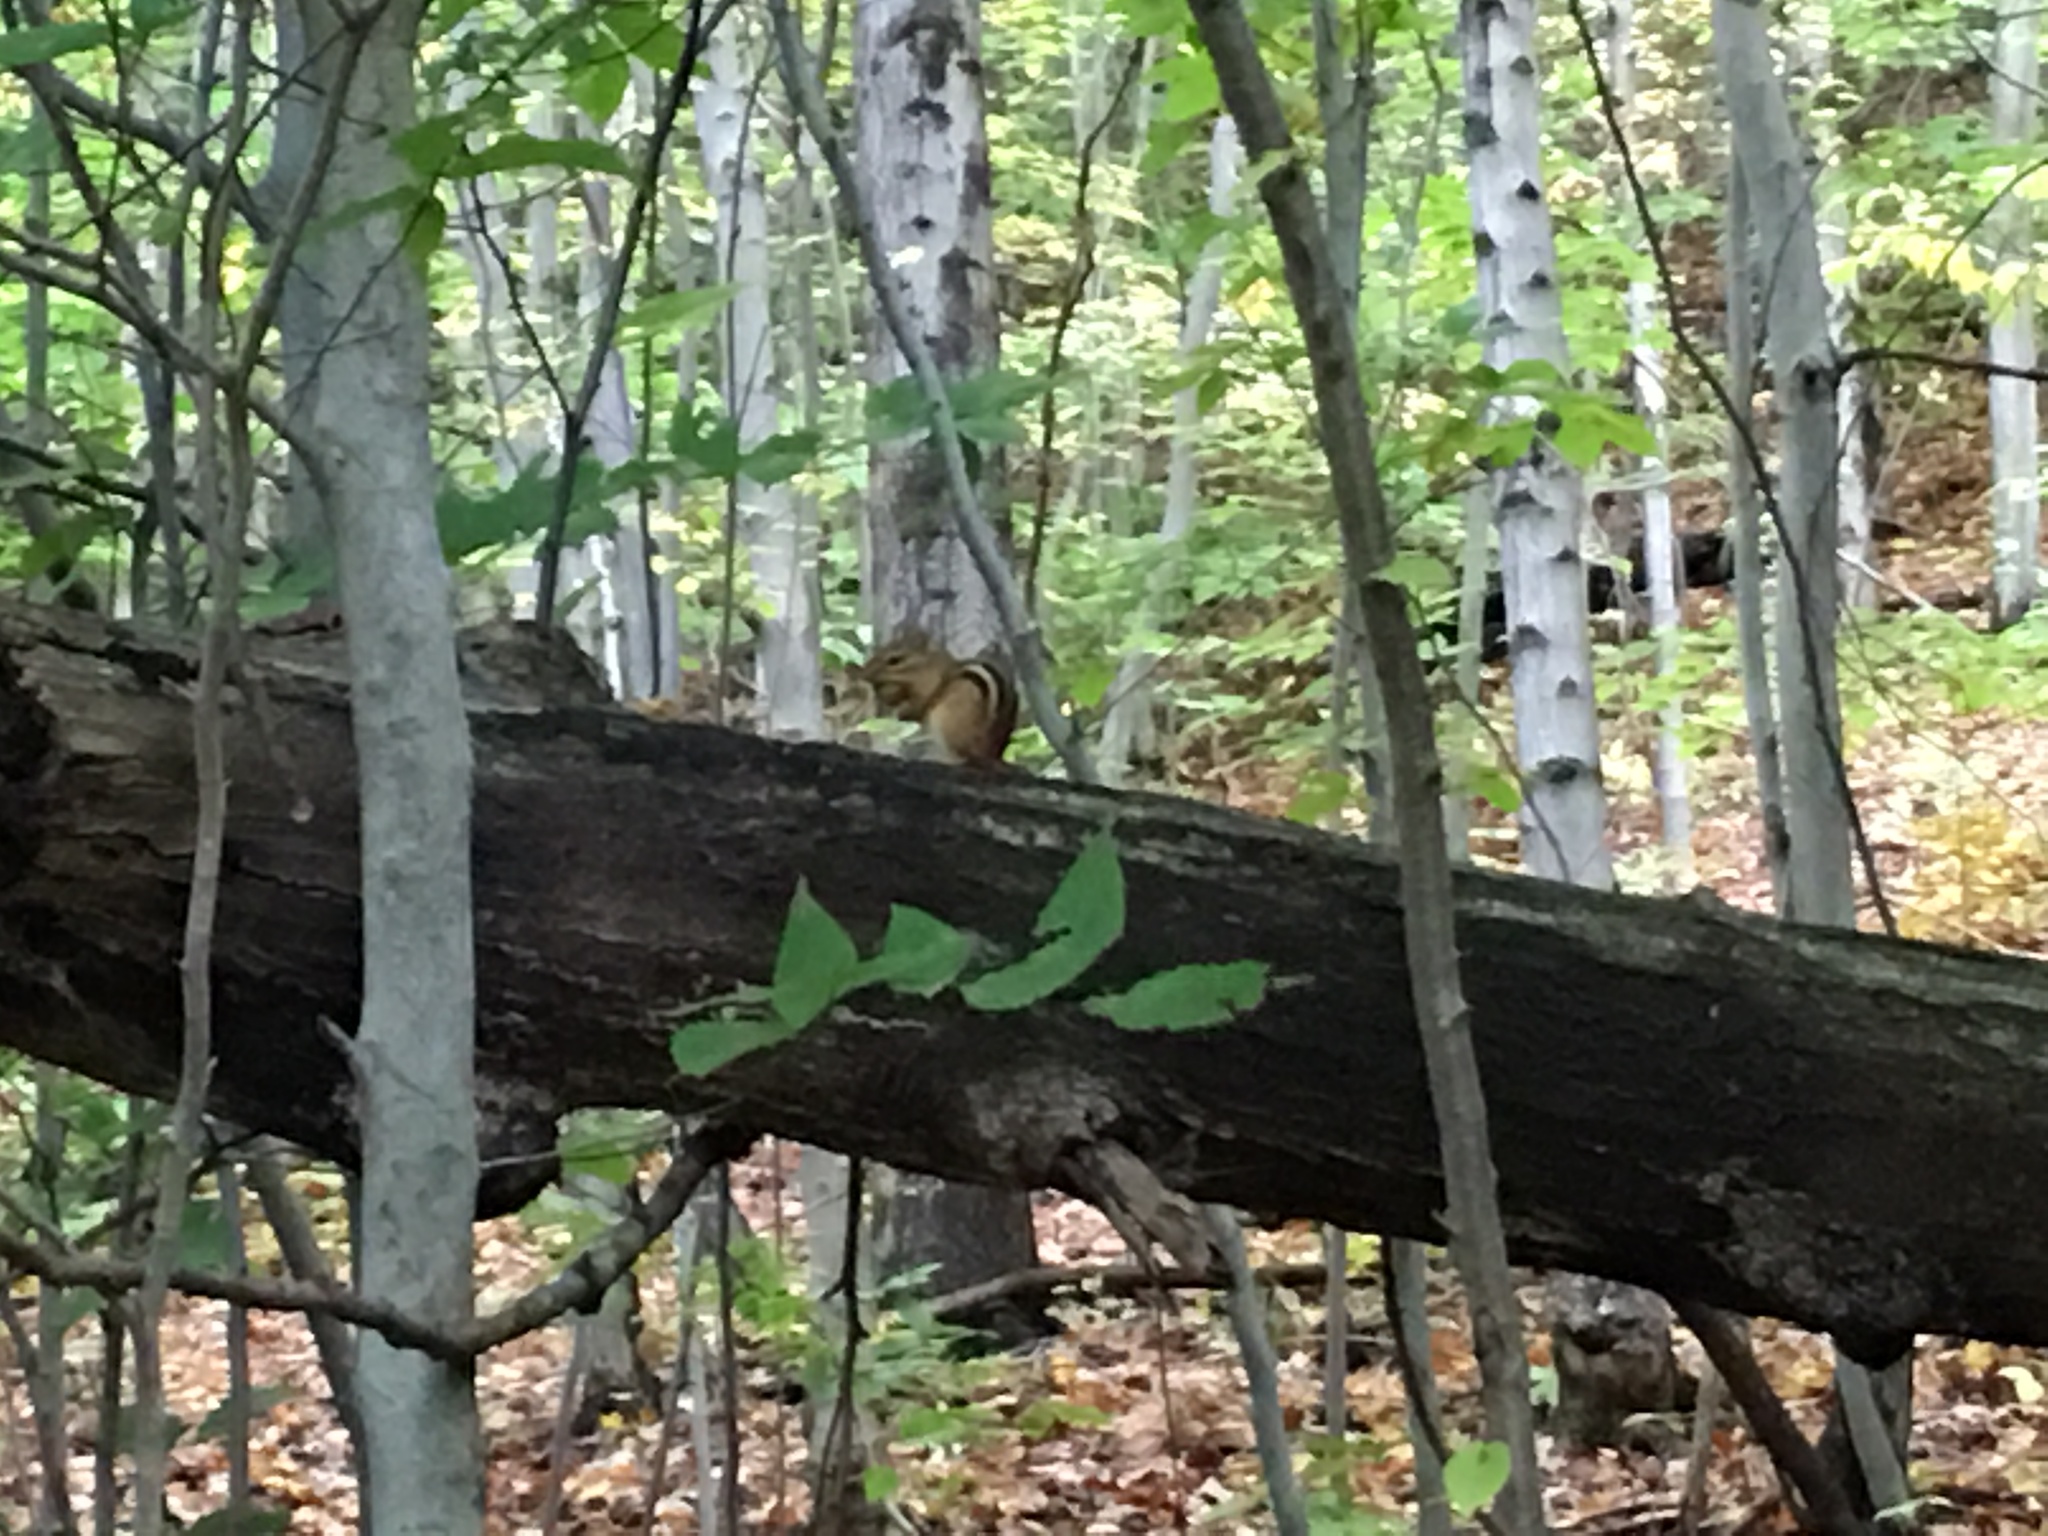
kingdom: Animalia
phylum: Chordata
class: Mammalia
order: Rodentia
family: Sciuridae
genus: Tamias
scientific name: Tamias striatus
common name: Eastern chipmunk
